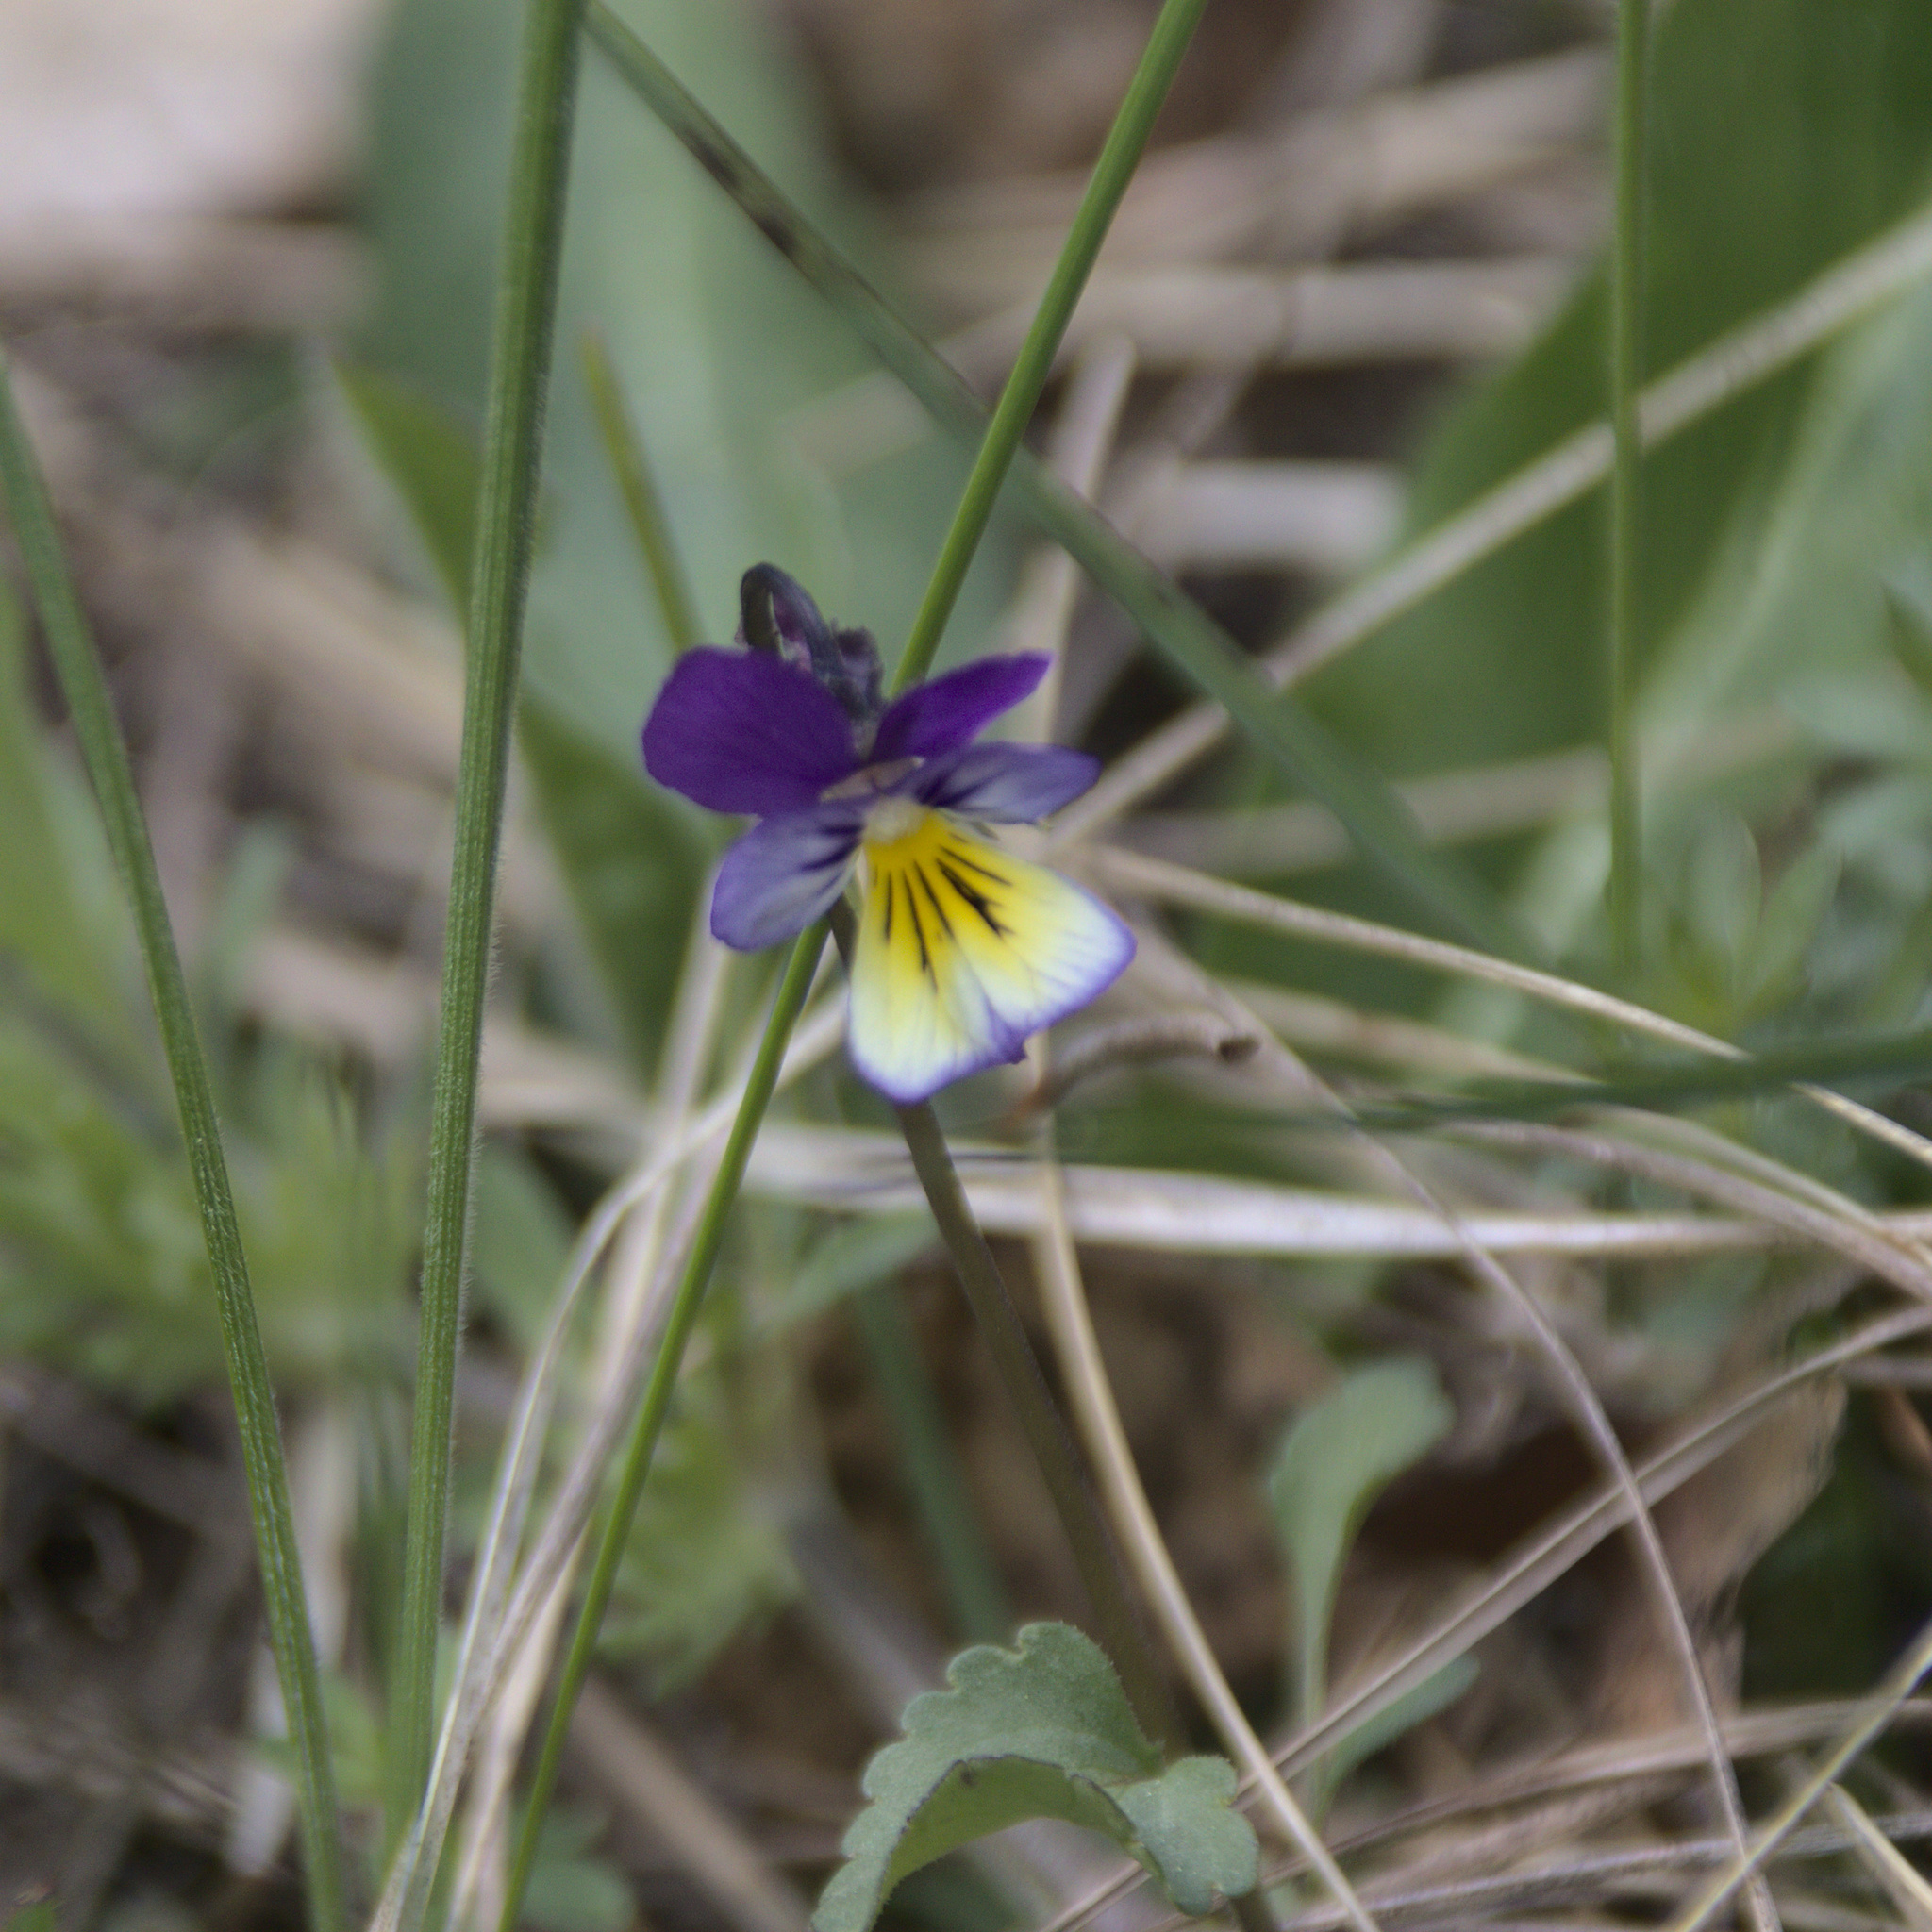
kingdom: Plantae
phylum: Tracheophyta
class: Magnoliopsida
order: Malpighiales
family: Violaceae
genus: Viola
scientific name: Viola tricolor
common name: Pansy
